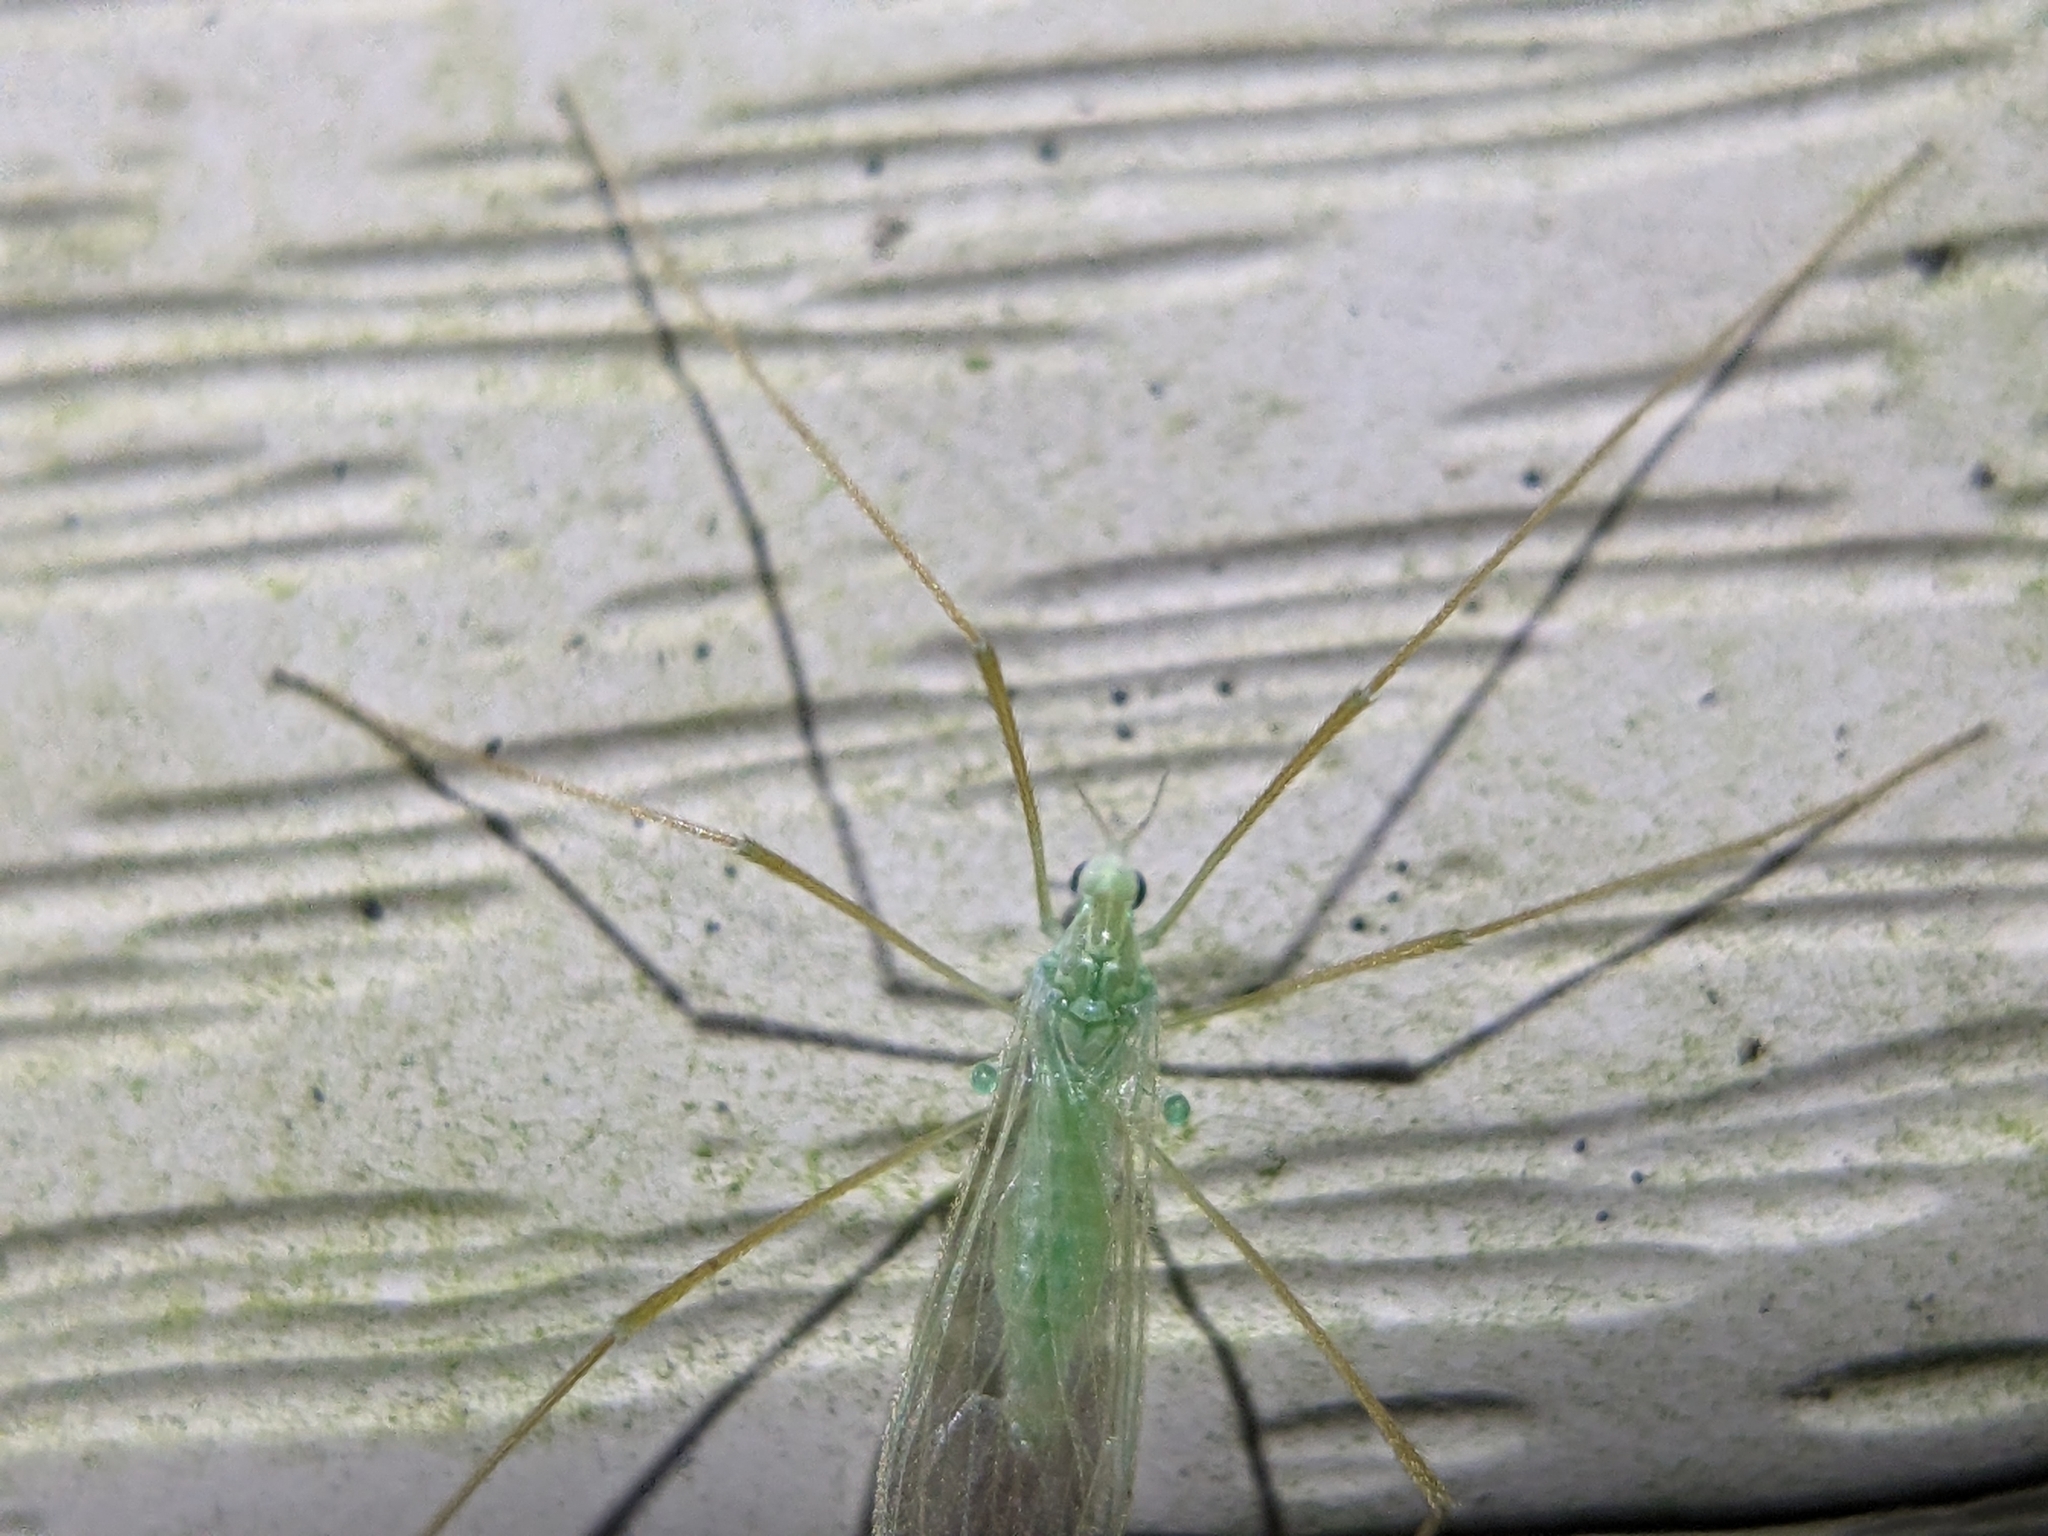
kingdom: Animalia
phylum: Arthropoda
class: Insecta
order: Diptera
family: Limoniidae
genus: Erioptera
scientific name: Erioptera
